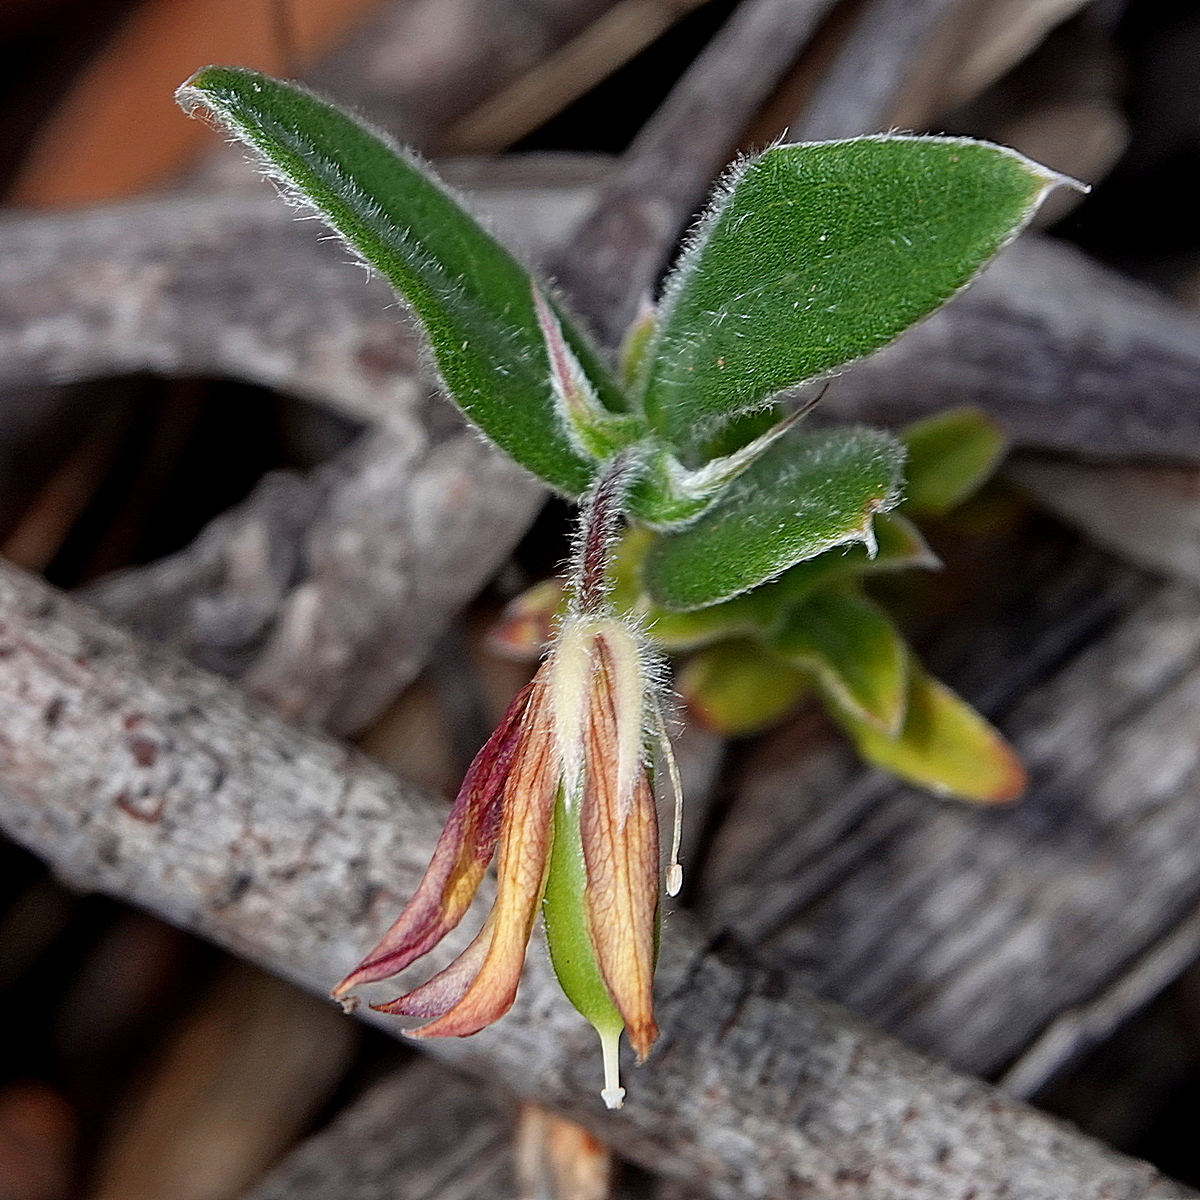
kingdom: Plantae
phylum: Tracheophyta
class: Magnoliopsida
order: Apiales
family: Pittosporaceae
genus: Billardiera
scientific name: Billardiera mutabilis
